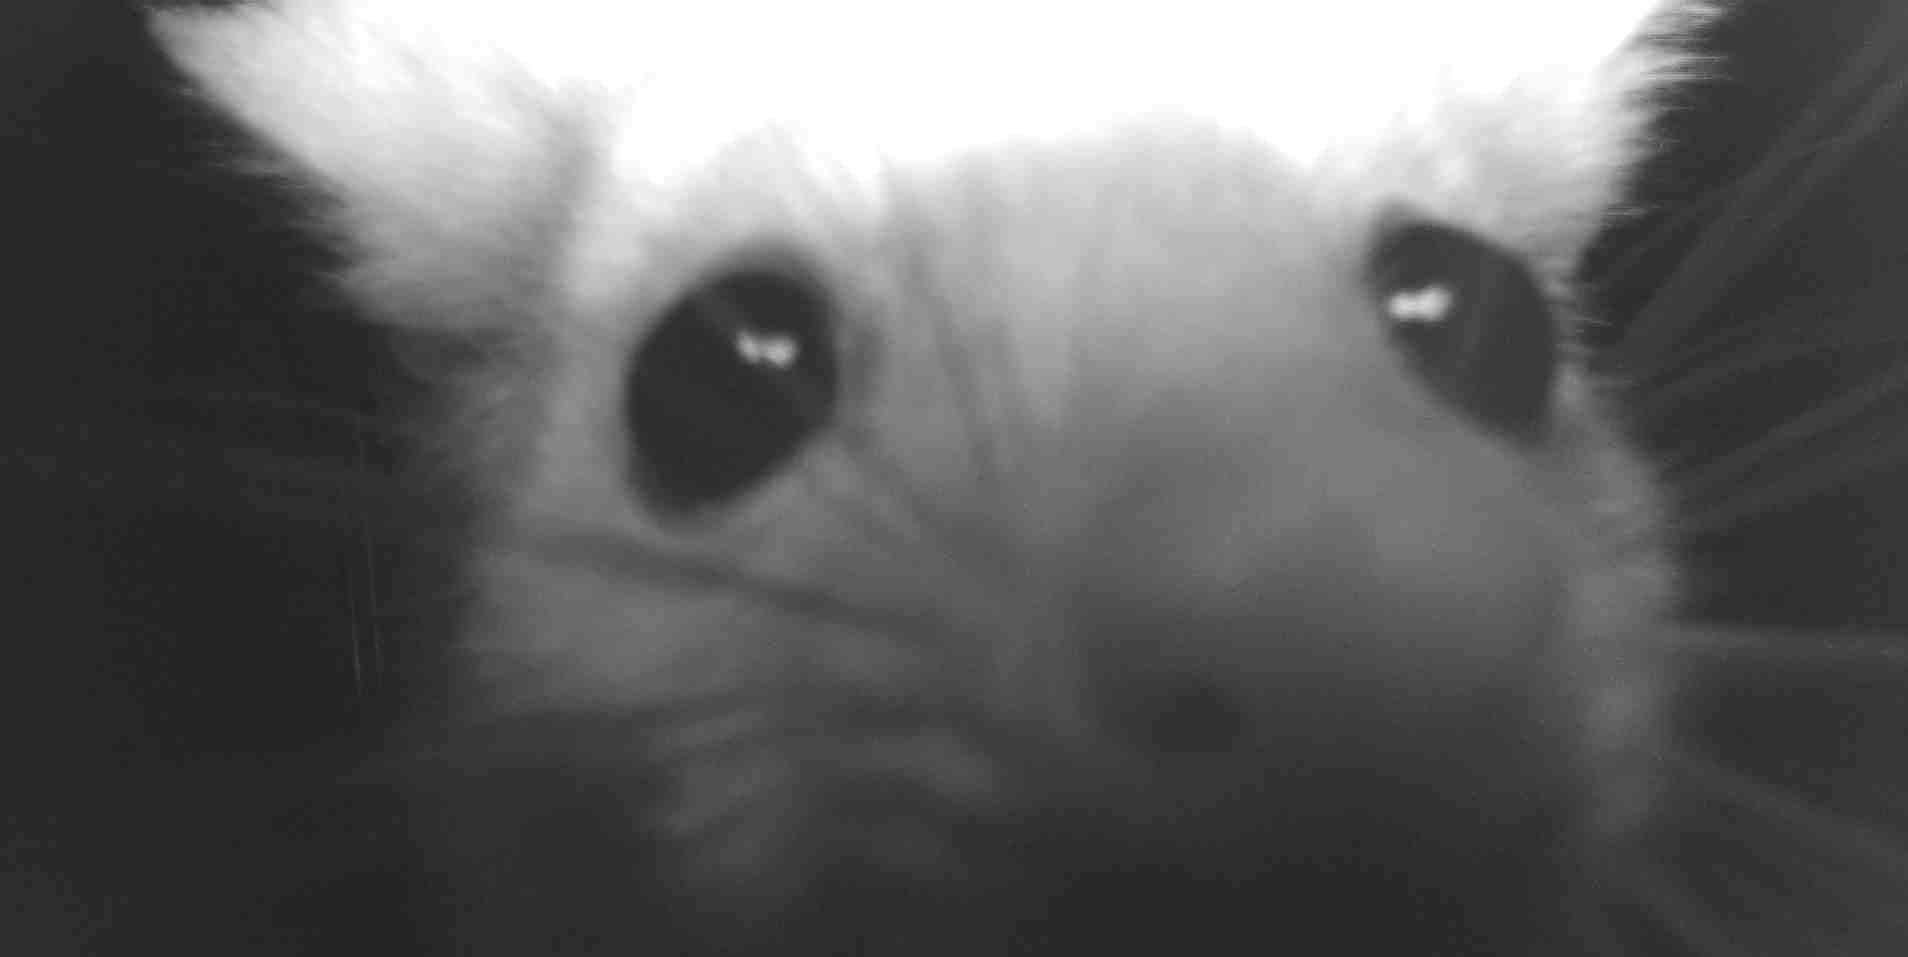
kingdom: Animalia
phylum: Chordata
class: Mammalia
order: Diprotodontia
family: Pseudocheiridae
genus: Pseudocheirus
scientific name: Pseudocheirus peregrinus
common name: Common ringtail possum
